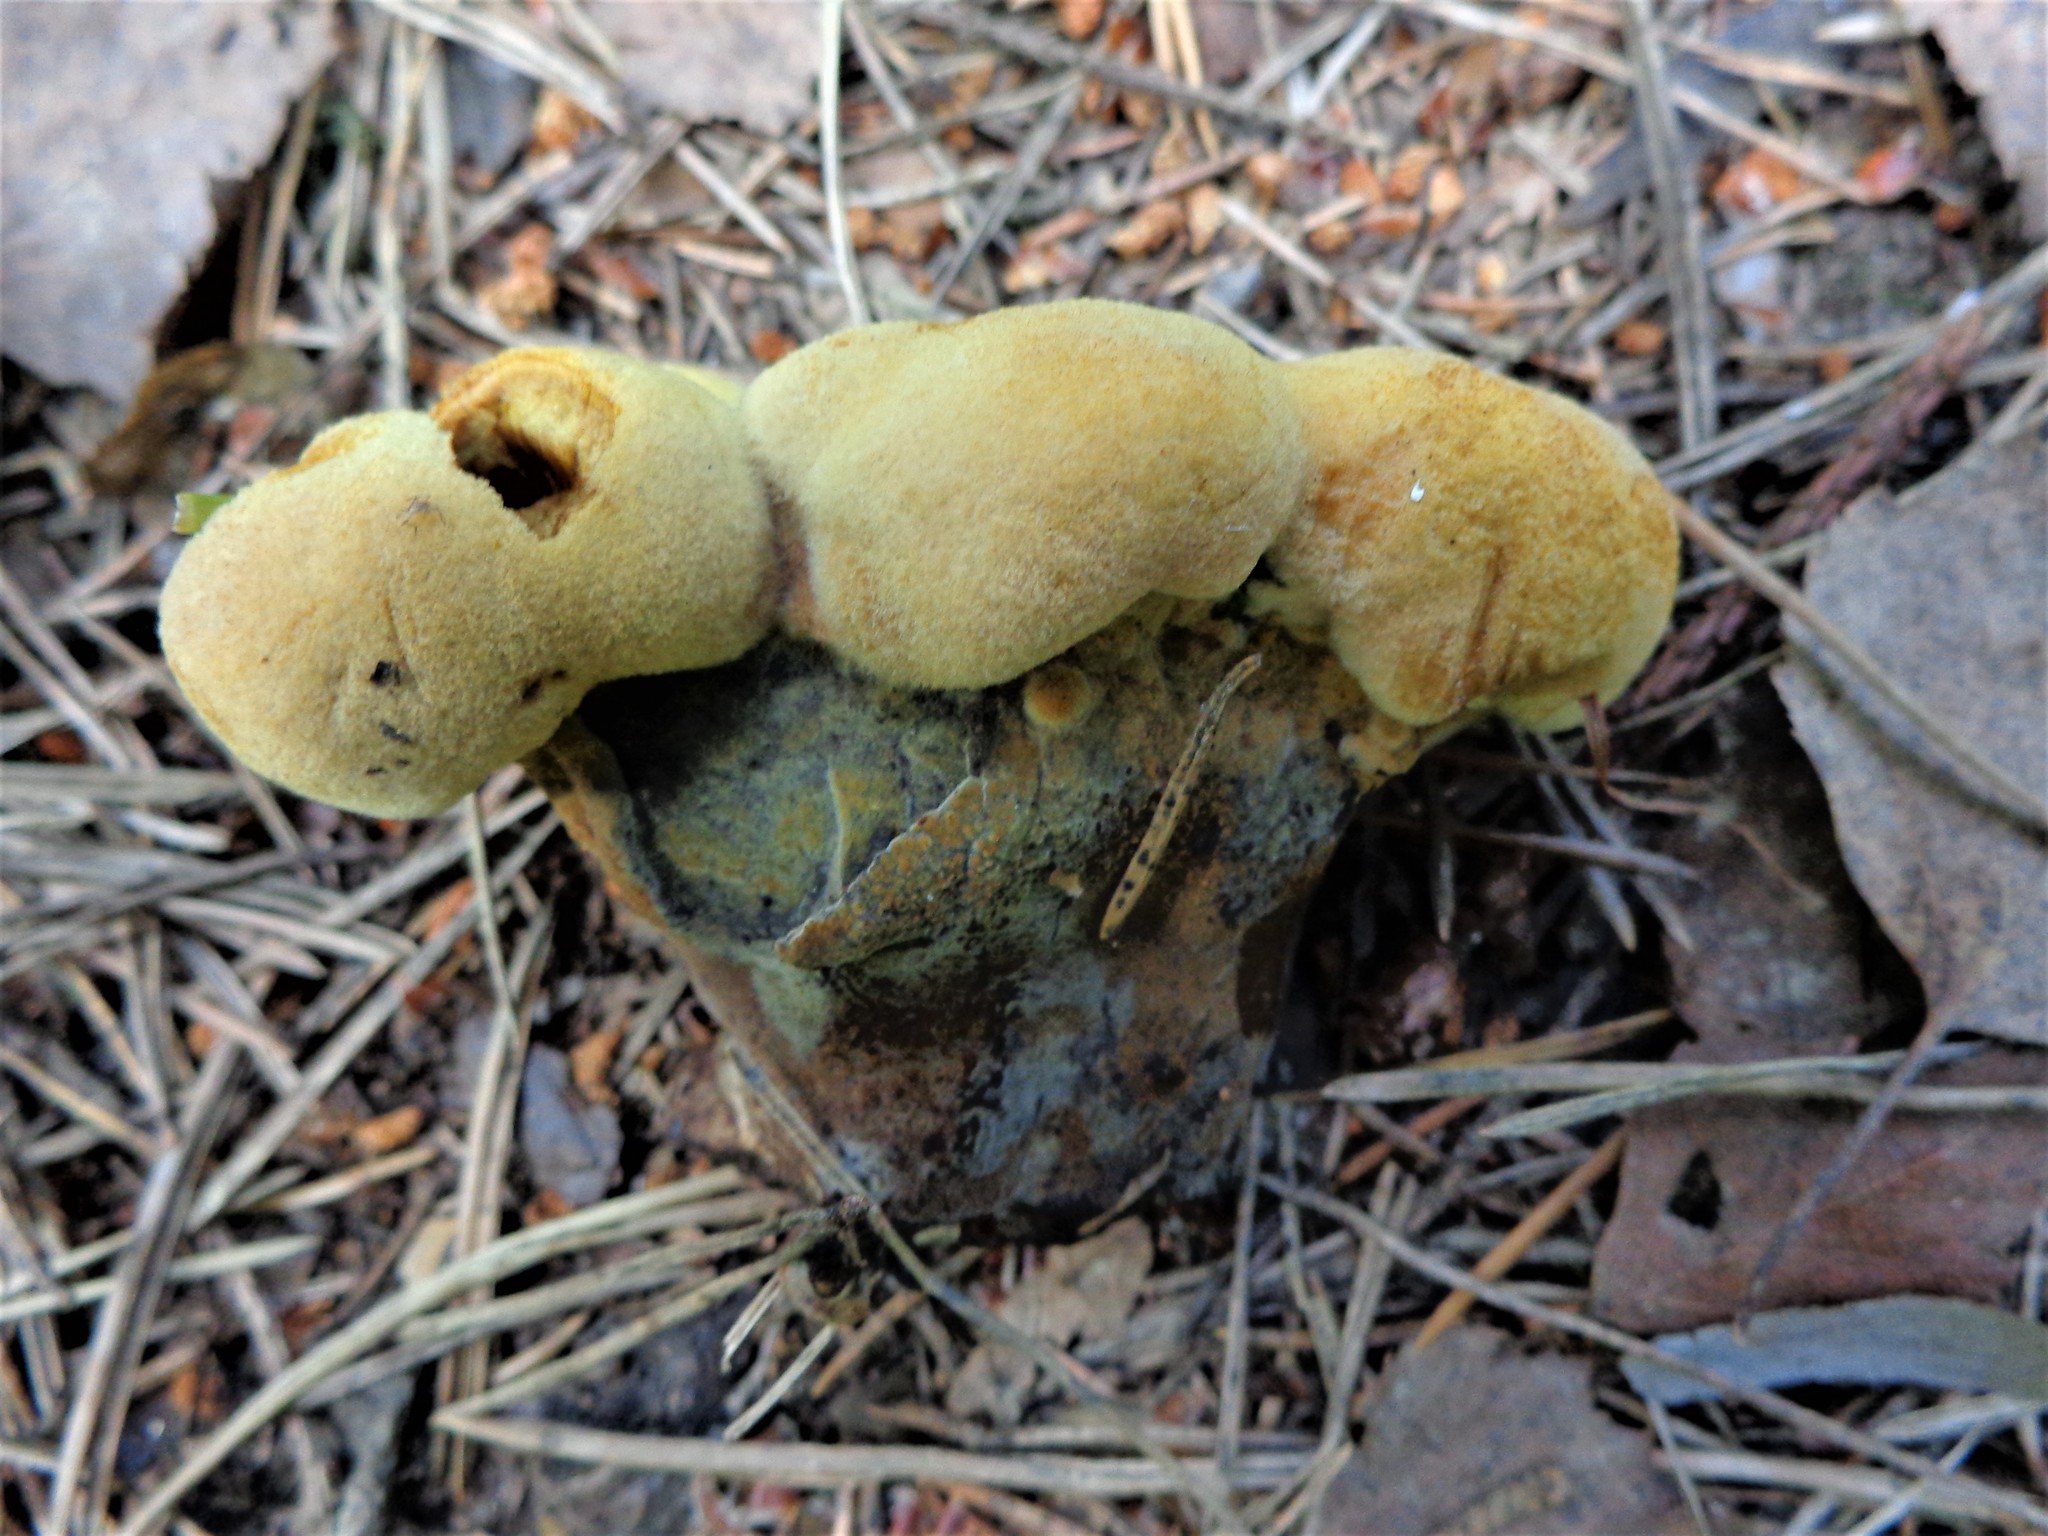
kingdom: Fungi
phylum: Basidiomycota
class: Agaricomycetes
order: Polyporales
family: Laetiporaceae
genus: Phaeolus
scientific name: Phaeolus schweinitzii
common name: Dyer's mazegill
